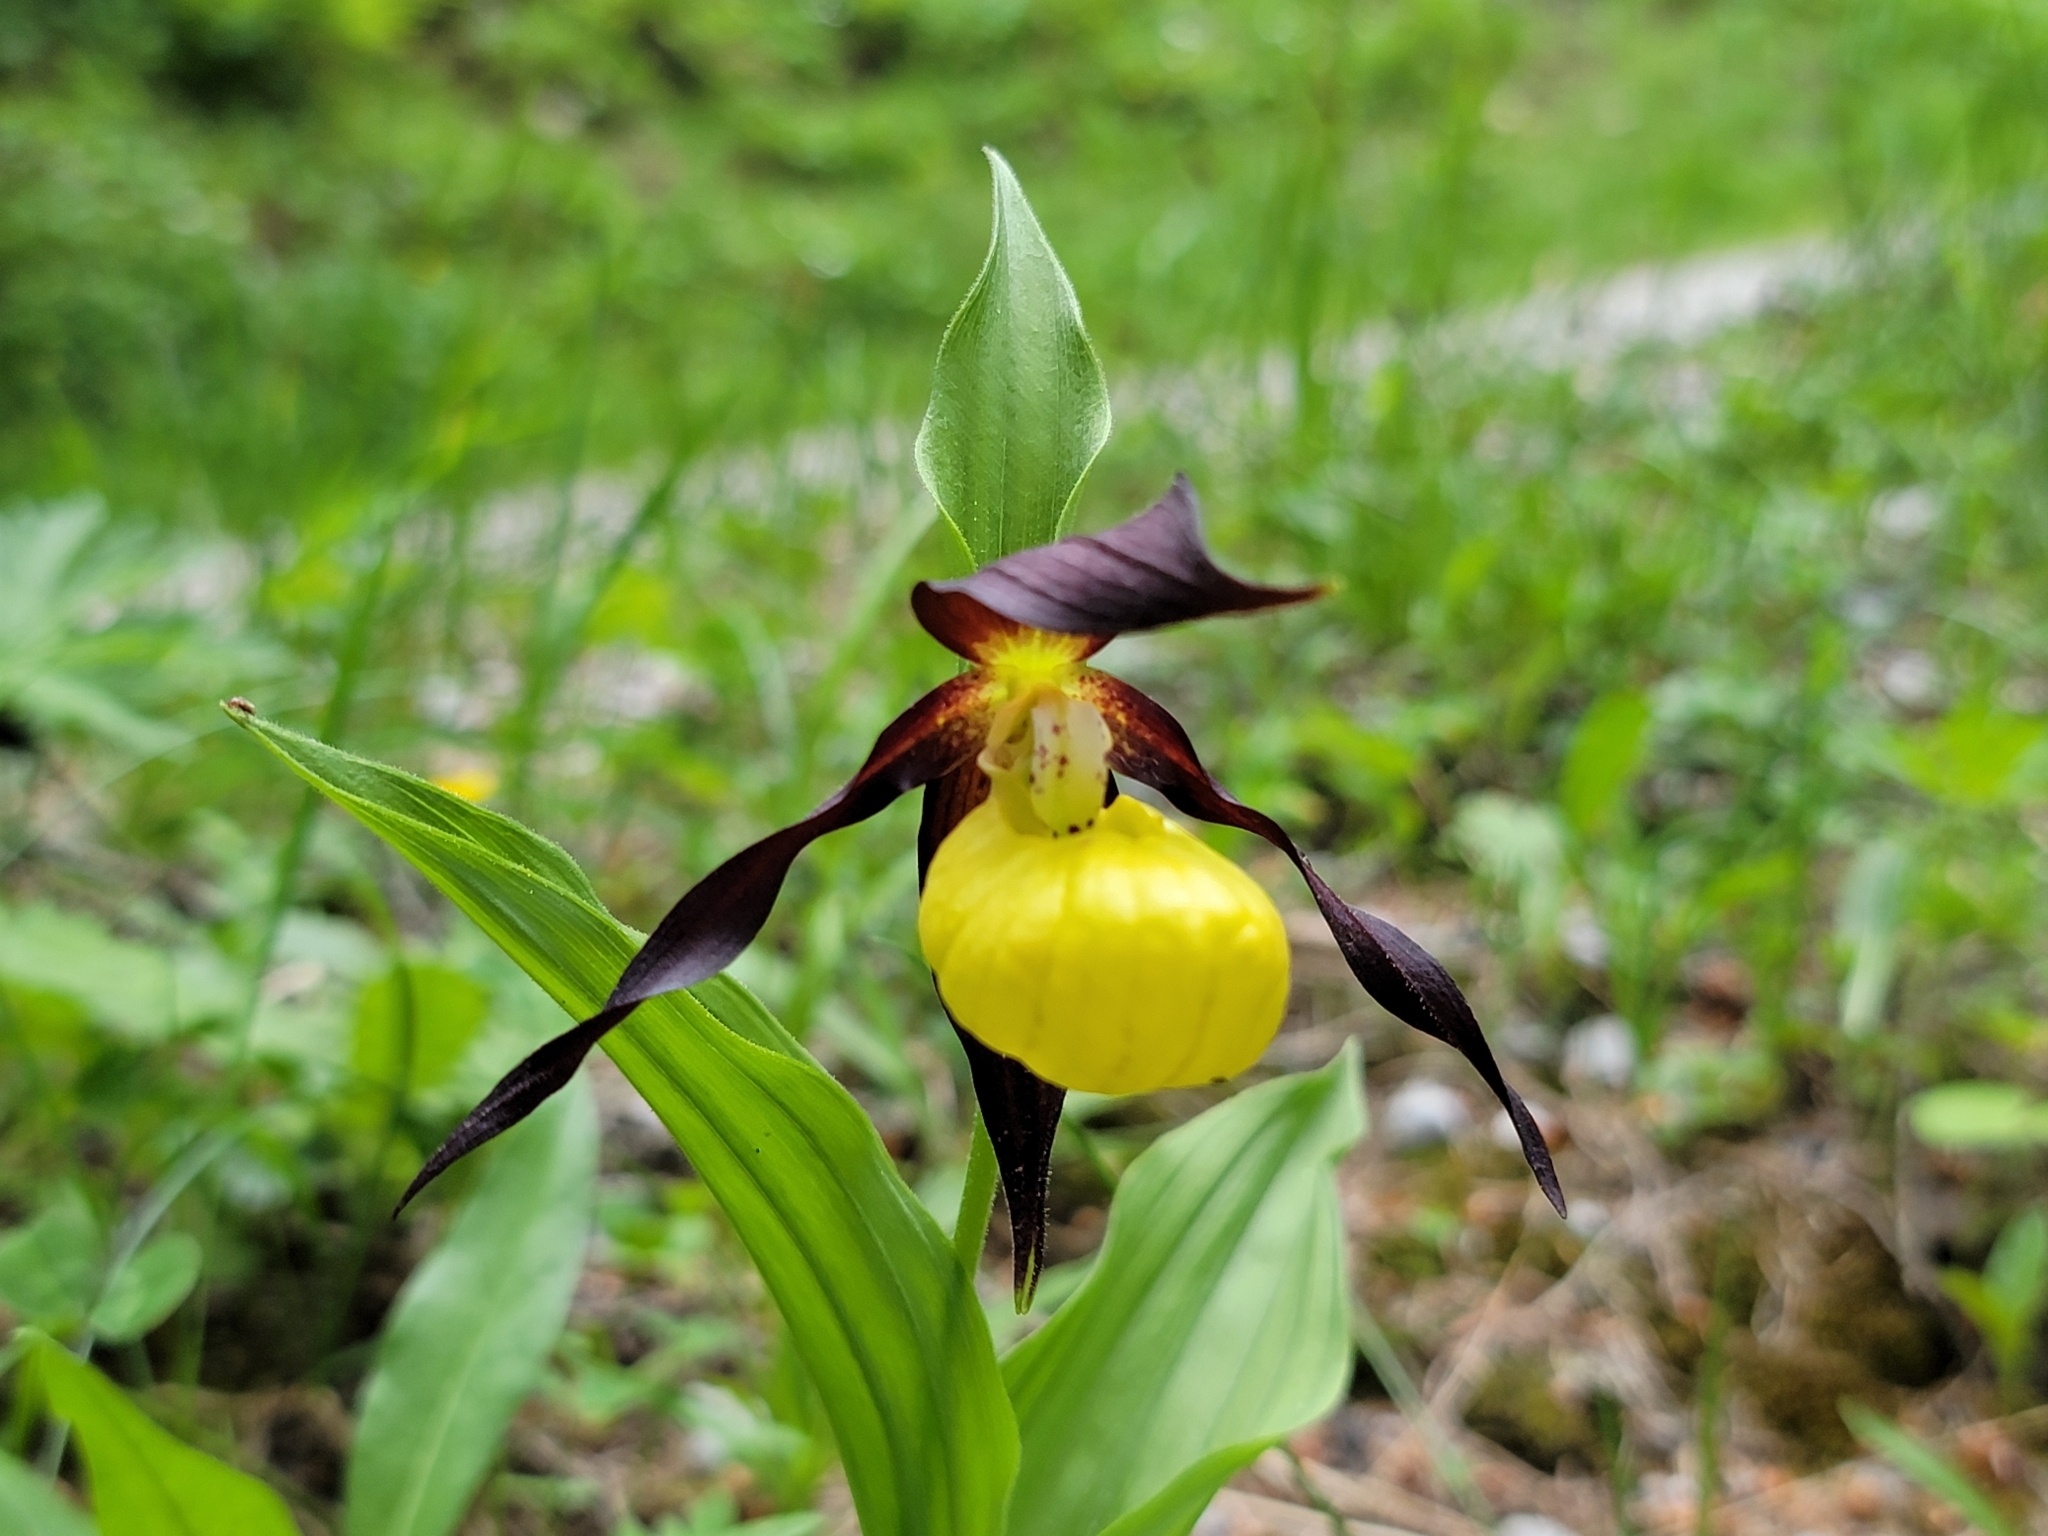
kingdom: Plantae
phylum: Tracheophyta
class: Liliopsida
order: Asparagales
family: Orchidaceae
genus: Cypripedium
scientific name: Cypripedium calceolus
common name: Lady's-slipper
